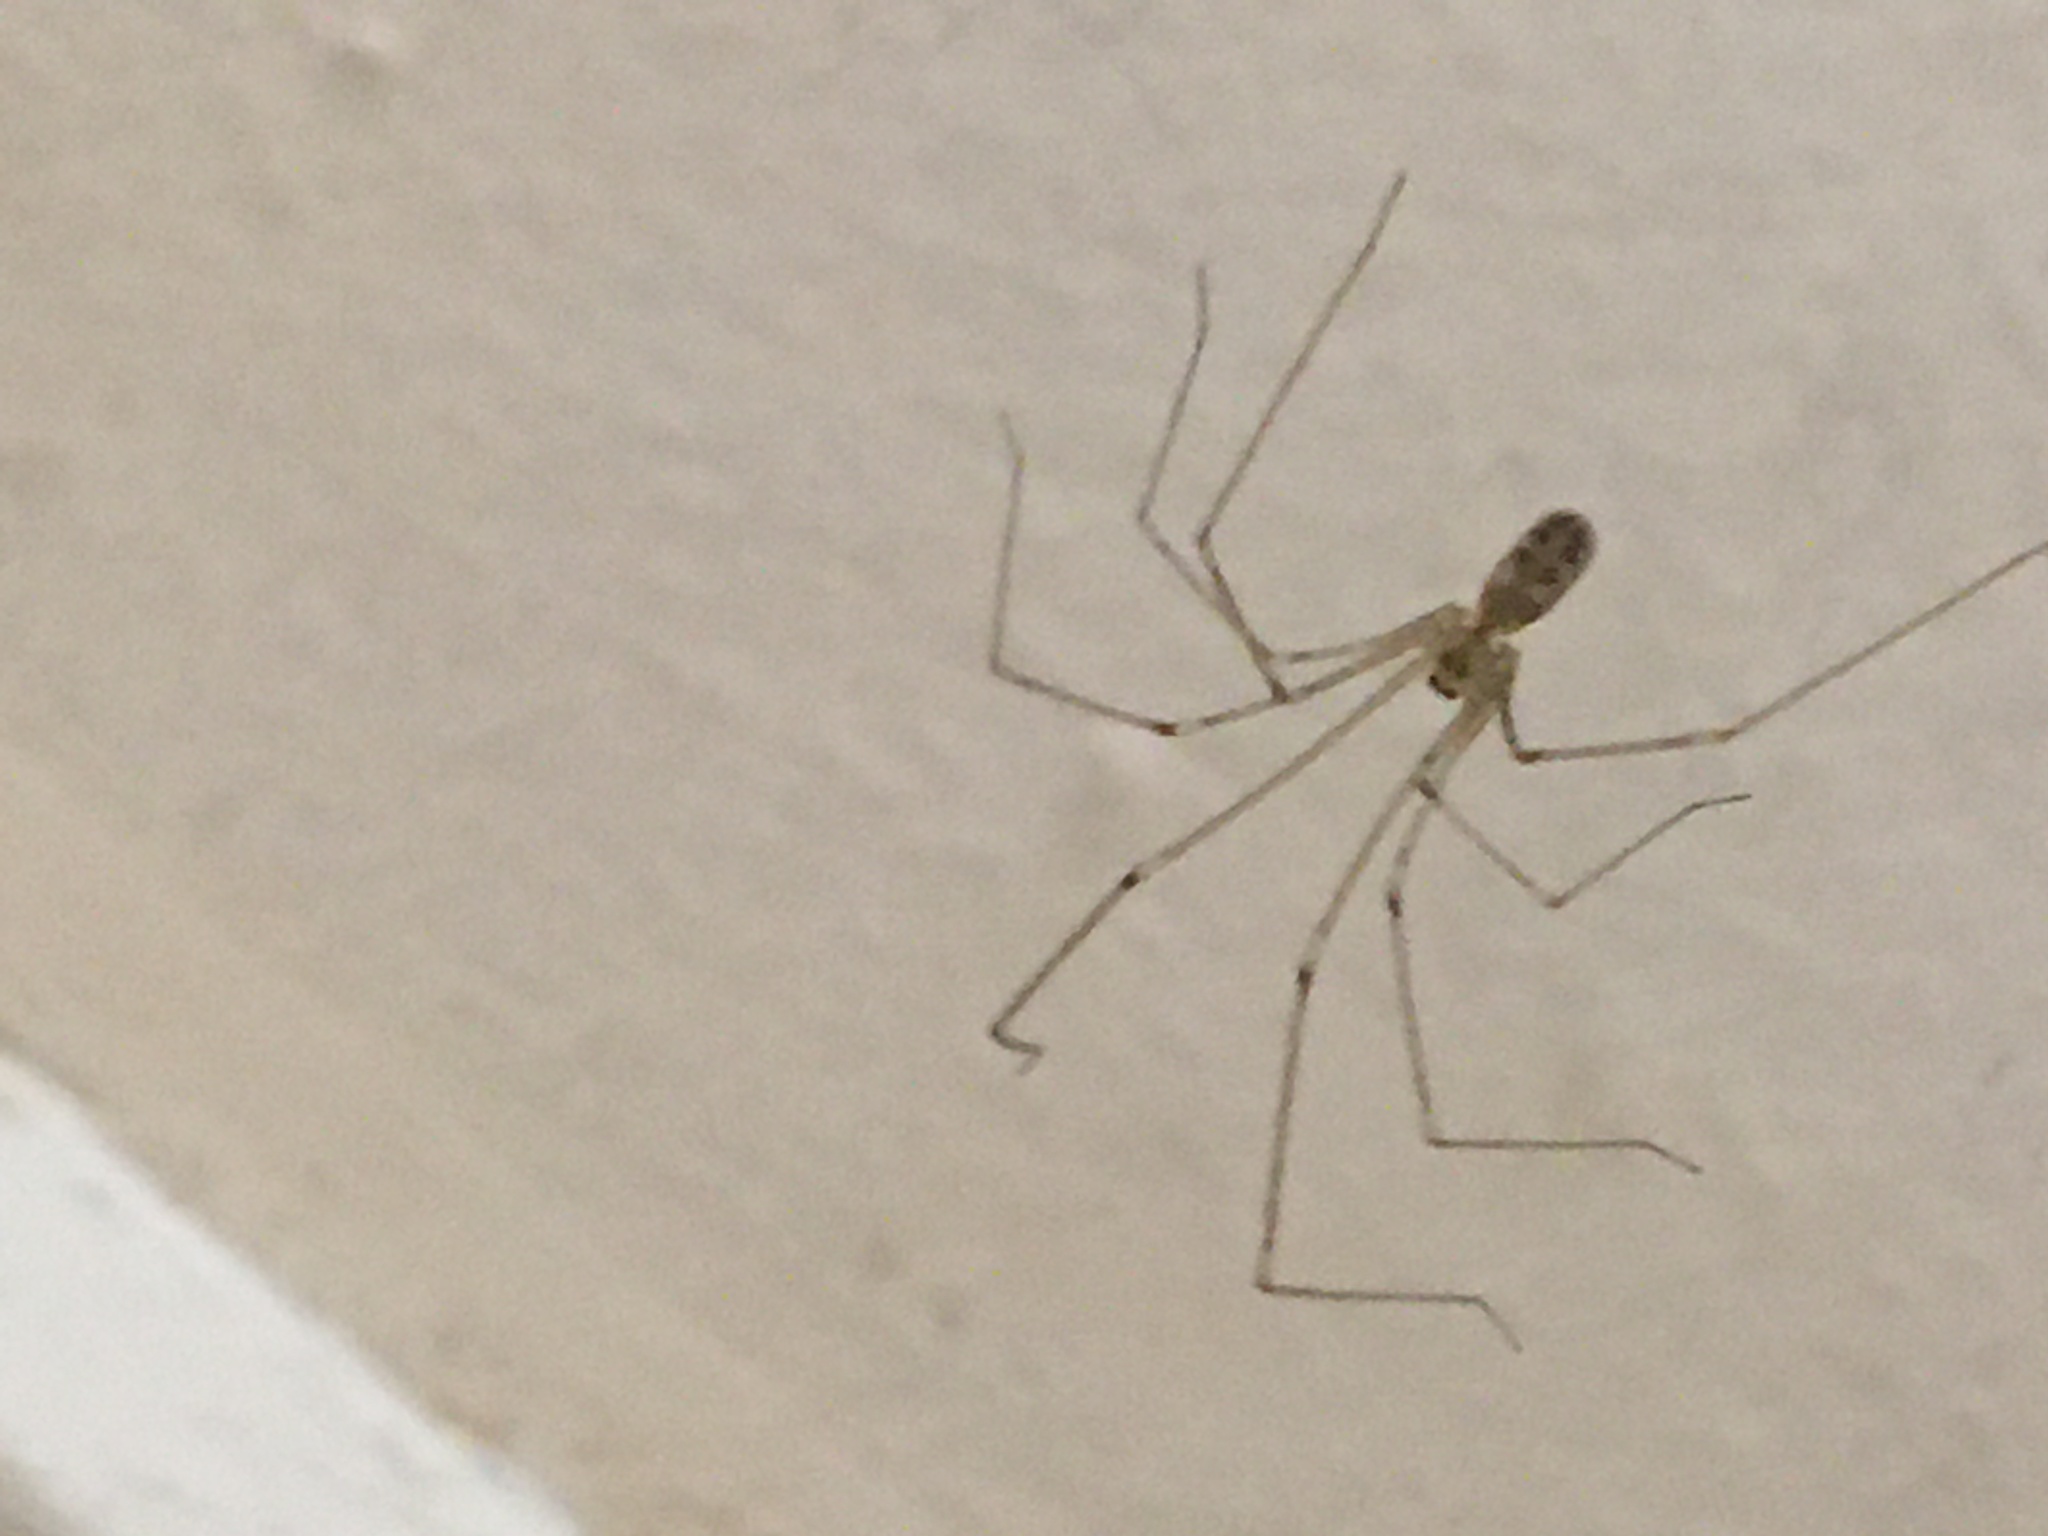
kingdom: Animalia
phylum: Arthropoda
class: Arachnida
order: Araneae
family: Pholcidae
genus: Pholcus
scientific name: Pholcus phalangioides
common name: Longbodied cellar spider
